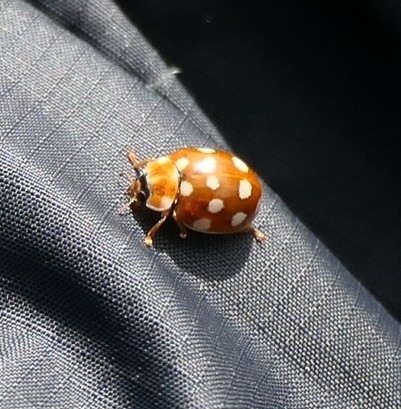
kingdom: Animalia
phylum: Arthropoda
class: Insecta
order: Coleoptera
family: Coccinellidae
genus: Calvia
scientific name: Calvia quatuordecimguttata
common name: Cream-spot ladybird
